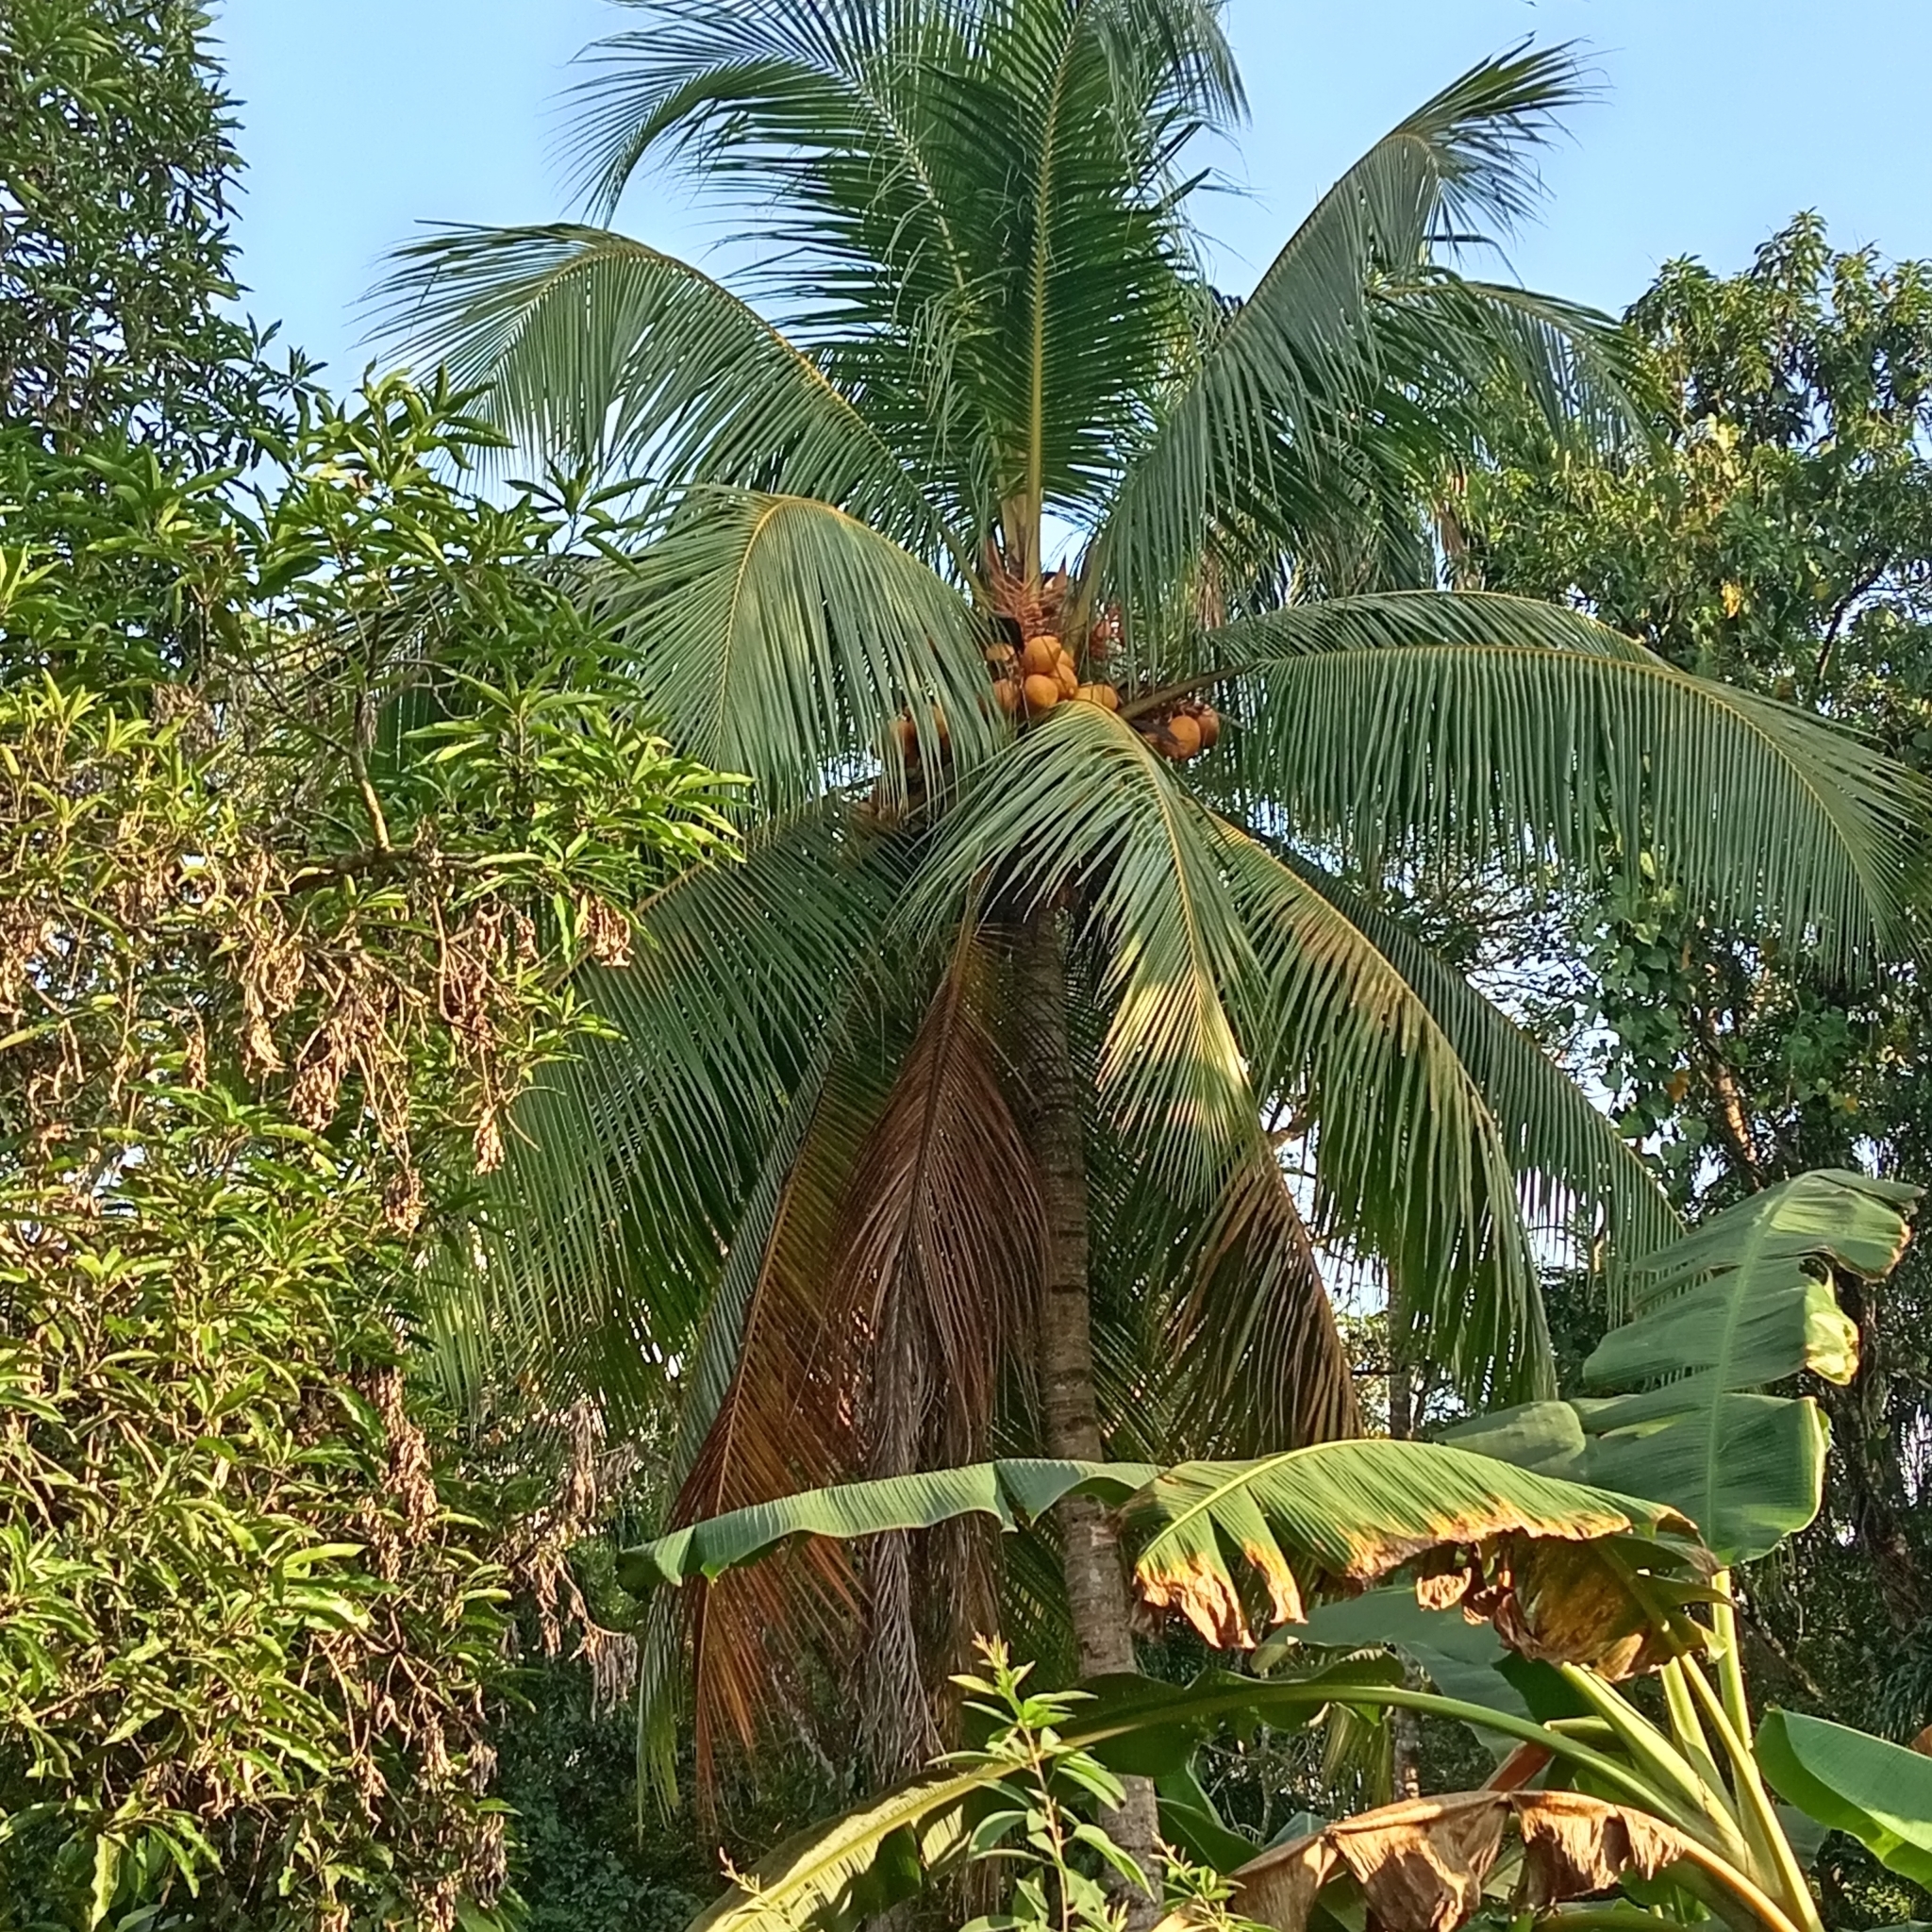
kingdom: Plantae
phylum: Tracheophyta
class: Liliopsida
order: Arecales
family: Arecaceae
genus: Cocos
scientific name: Cocos nucifera
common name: Coconut palm
